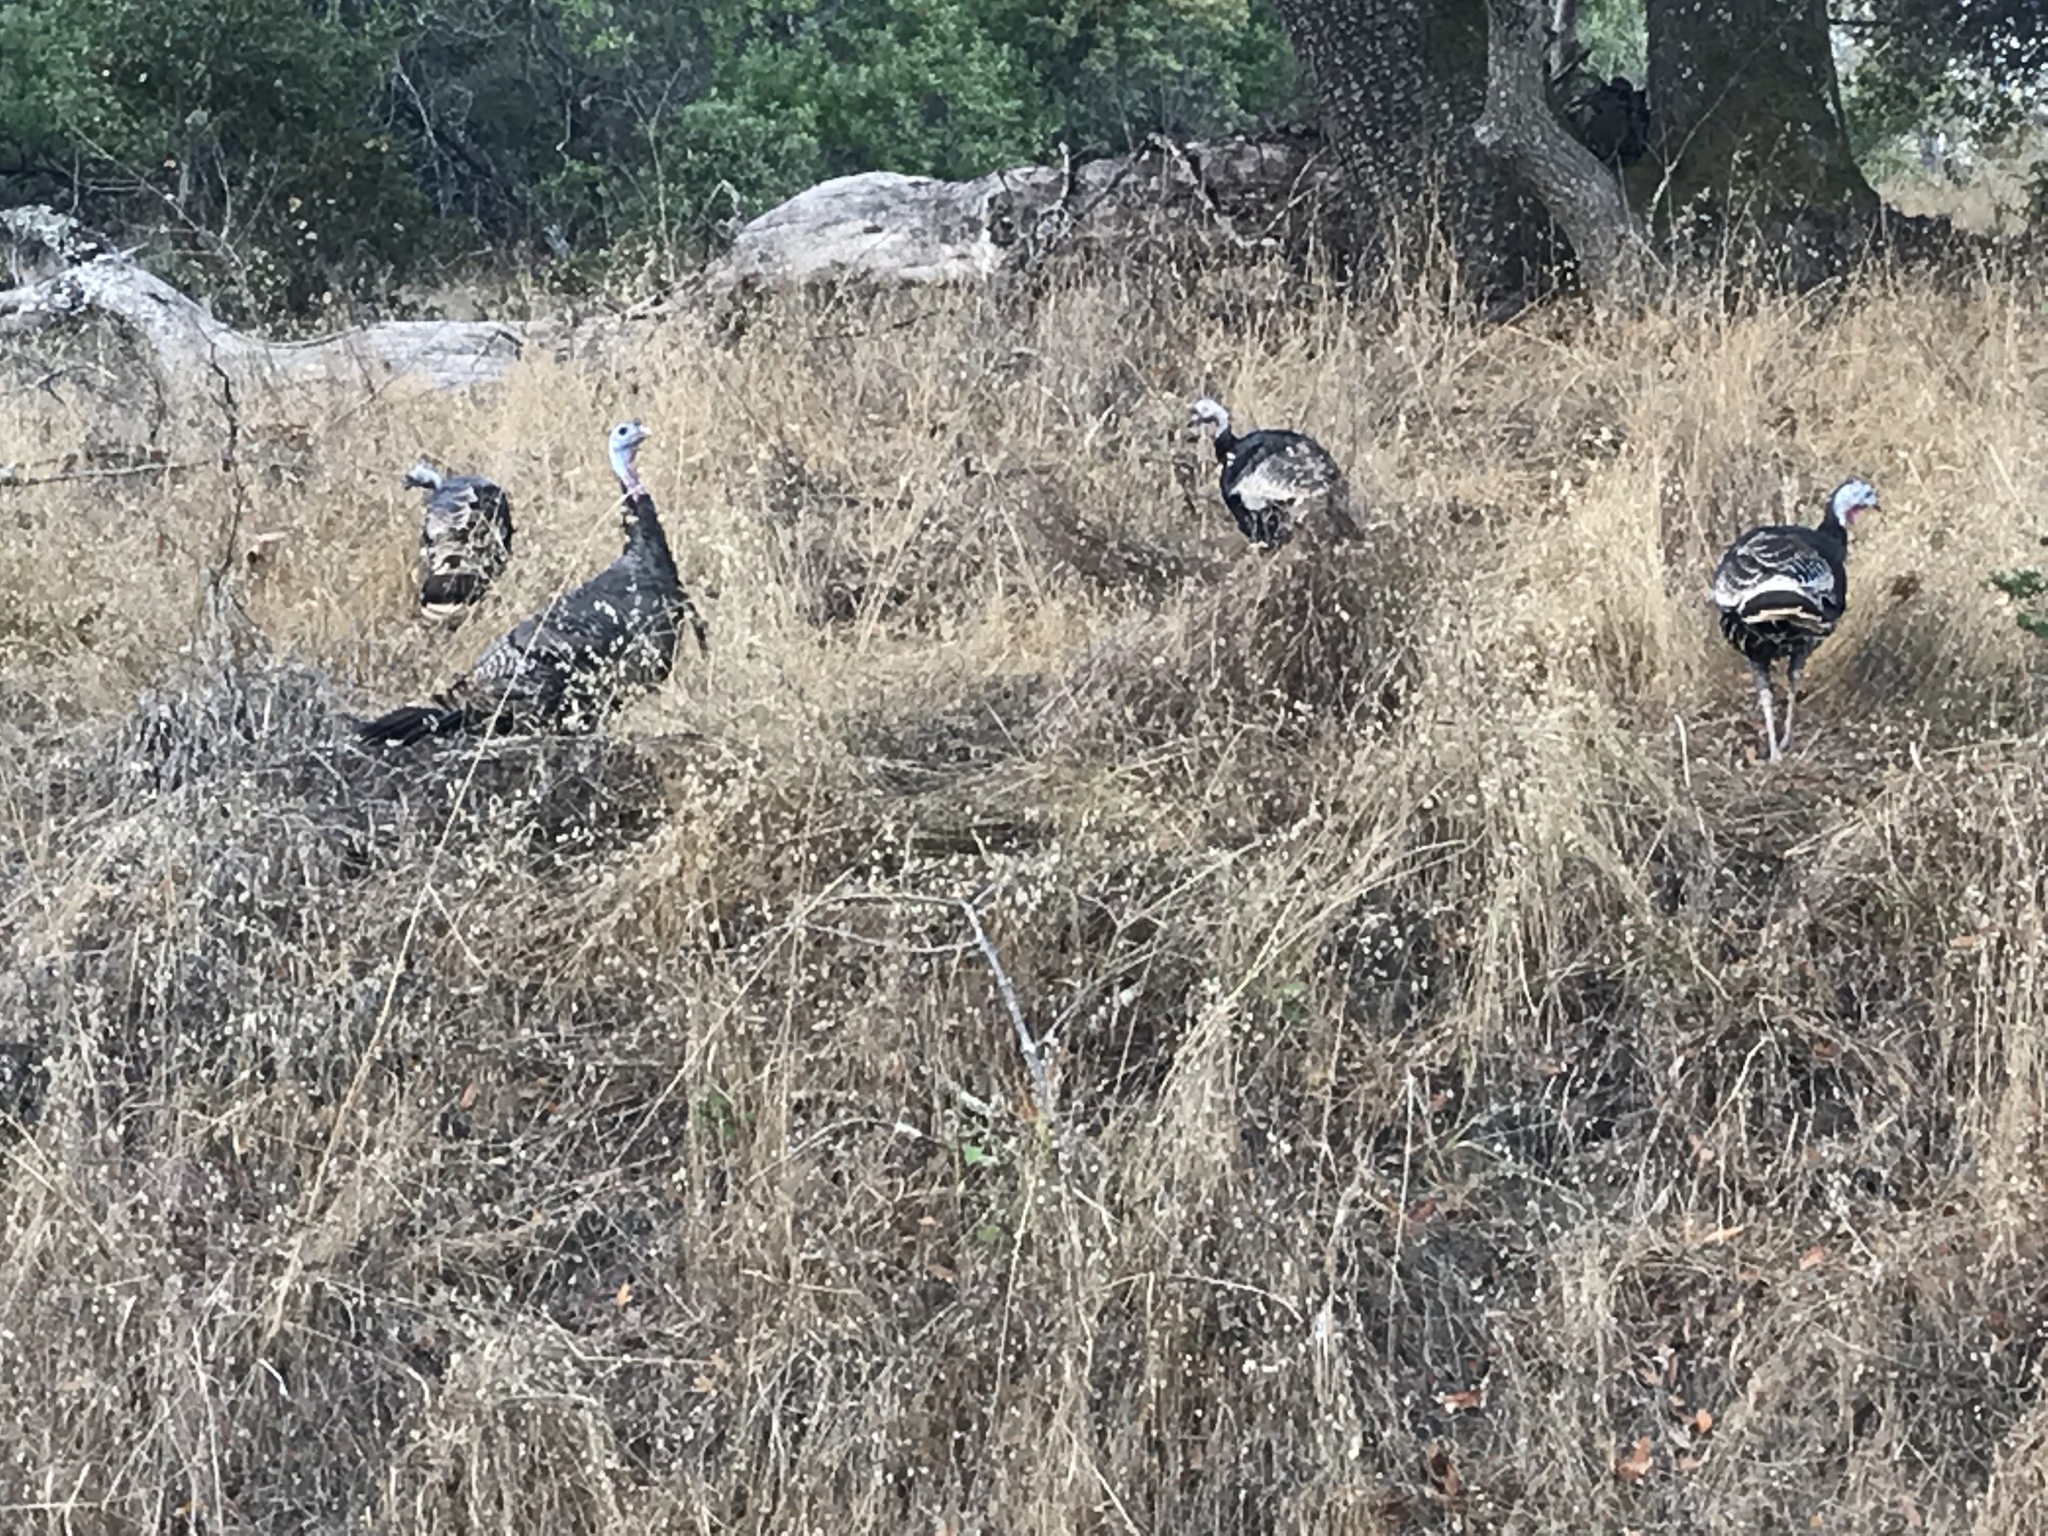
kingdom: Animalia
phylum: Chordata
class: Aves
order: Galliformes
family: Phasianidae
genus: Meleagris
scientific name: Meleagris gallopavo
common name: Wild turkey
